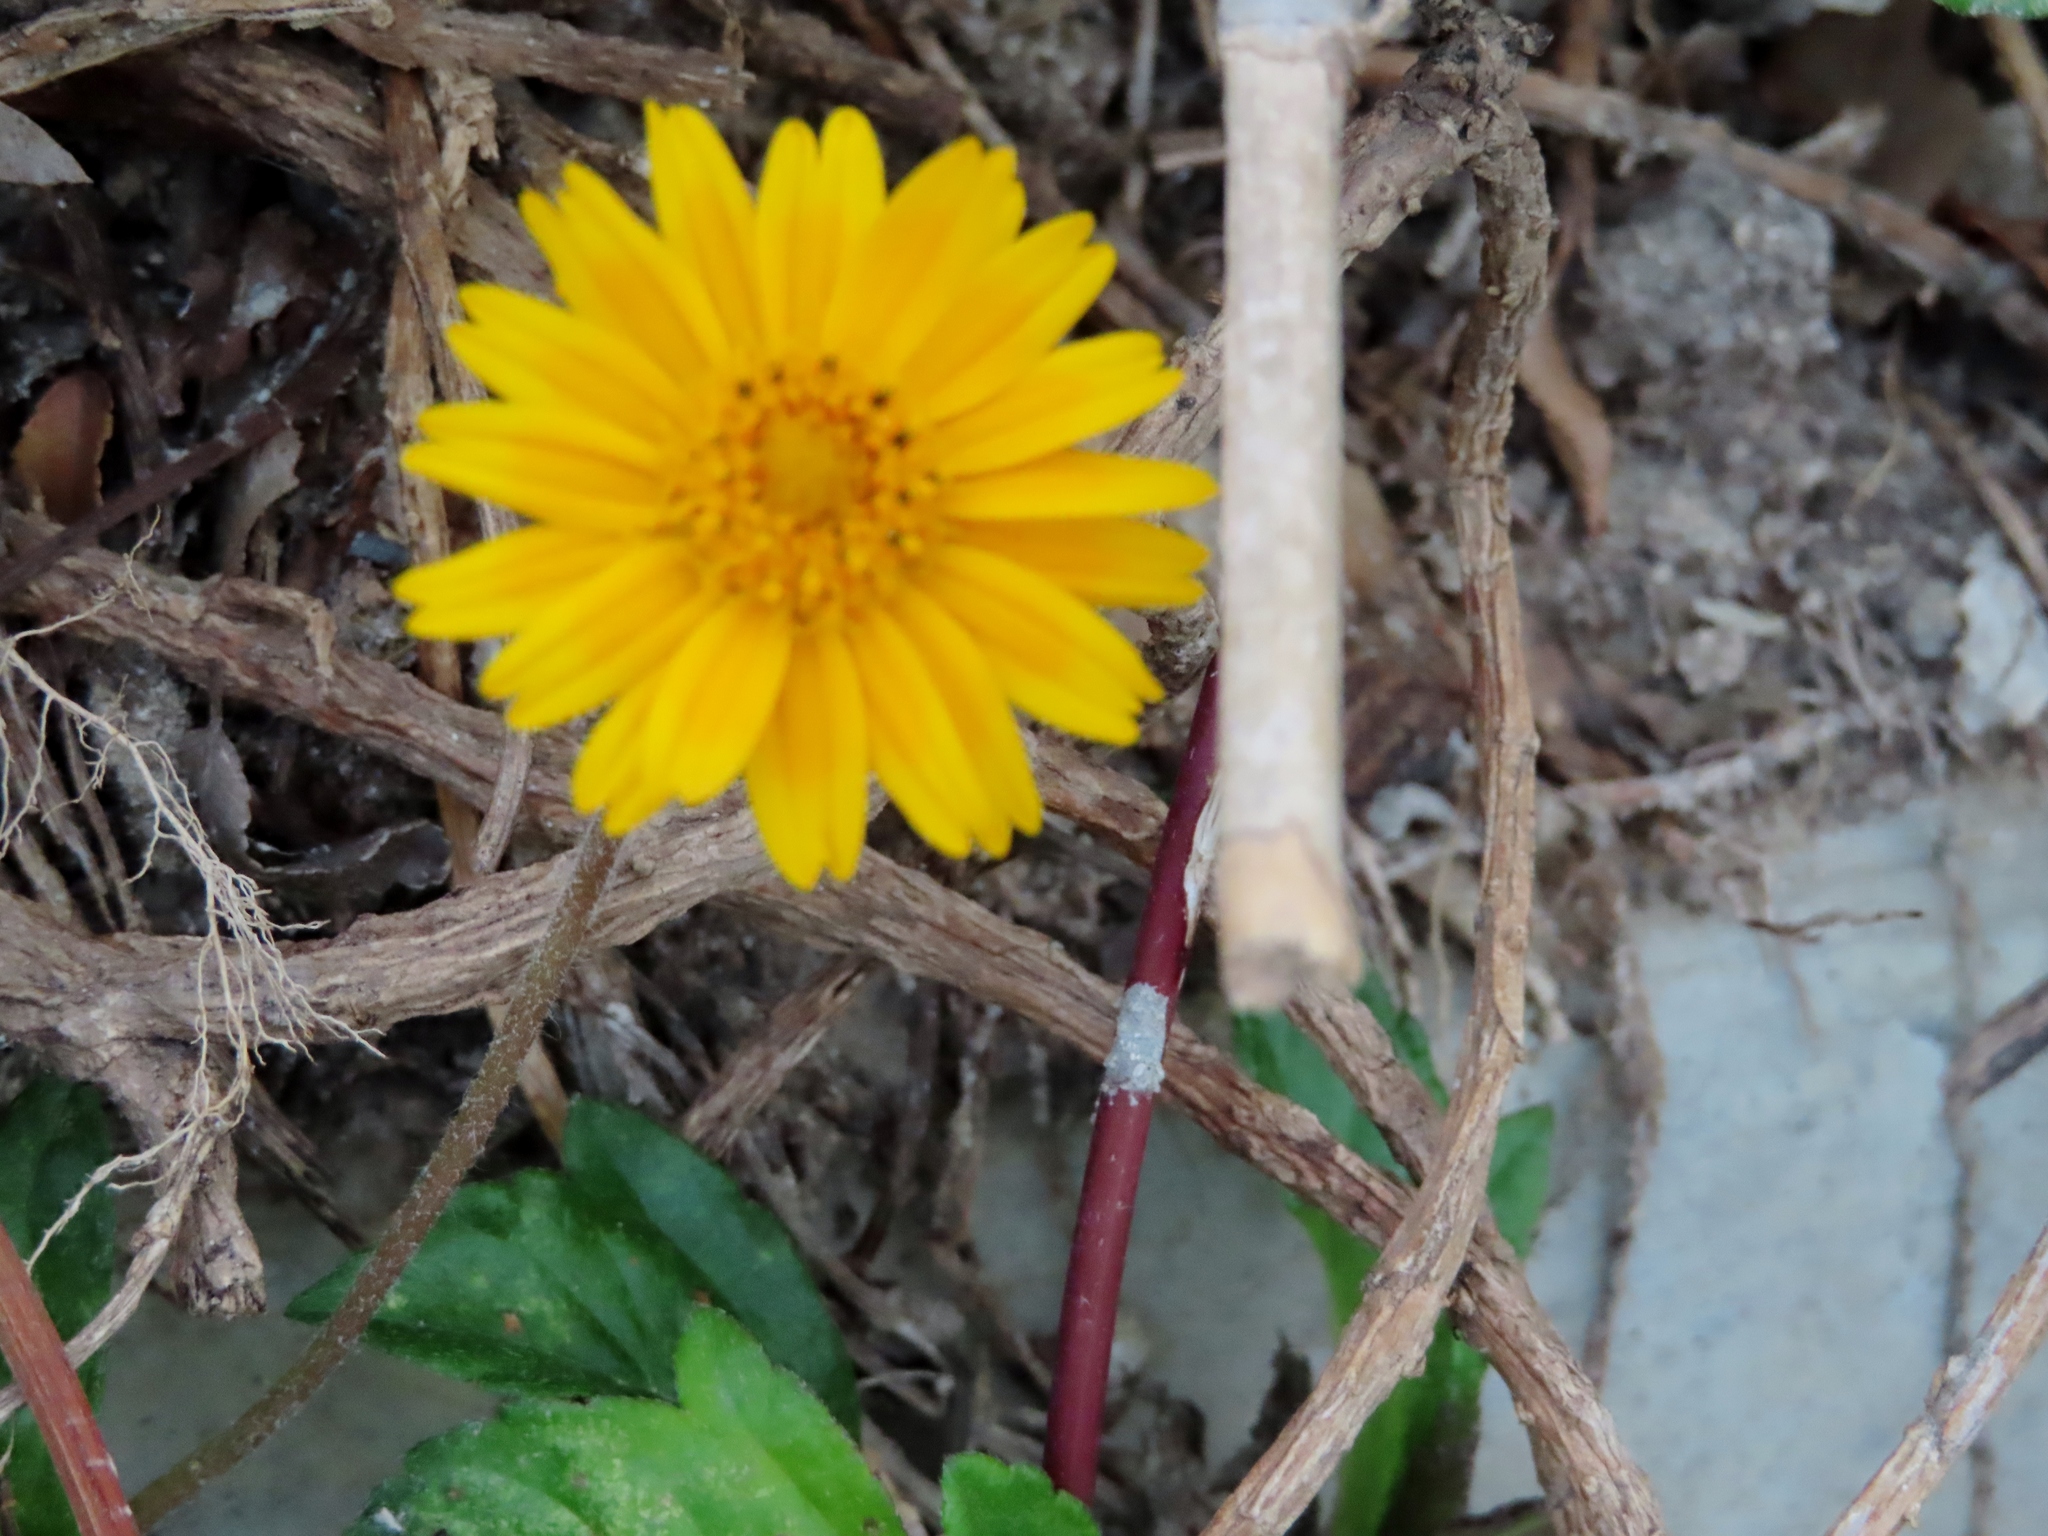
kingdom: Plantae
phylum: Tracheophyta
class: Magnoliopsida
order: Asterales
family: Asteraceae
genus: Sphagneticola
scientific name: Sphagneticola trilobata
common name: Bay biscayne creeping-oxeye
